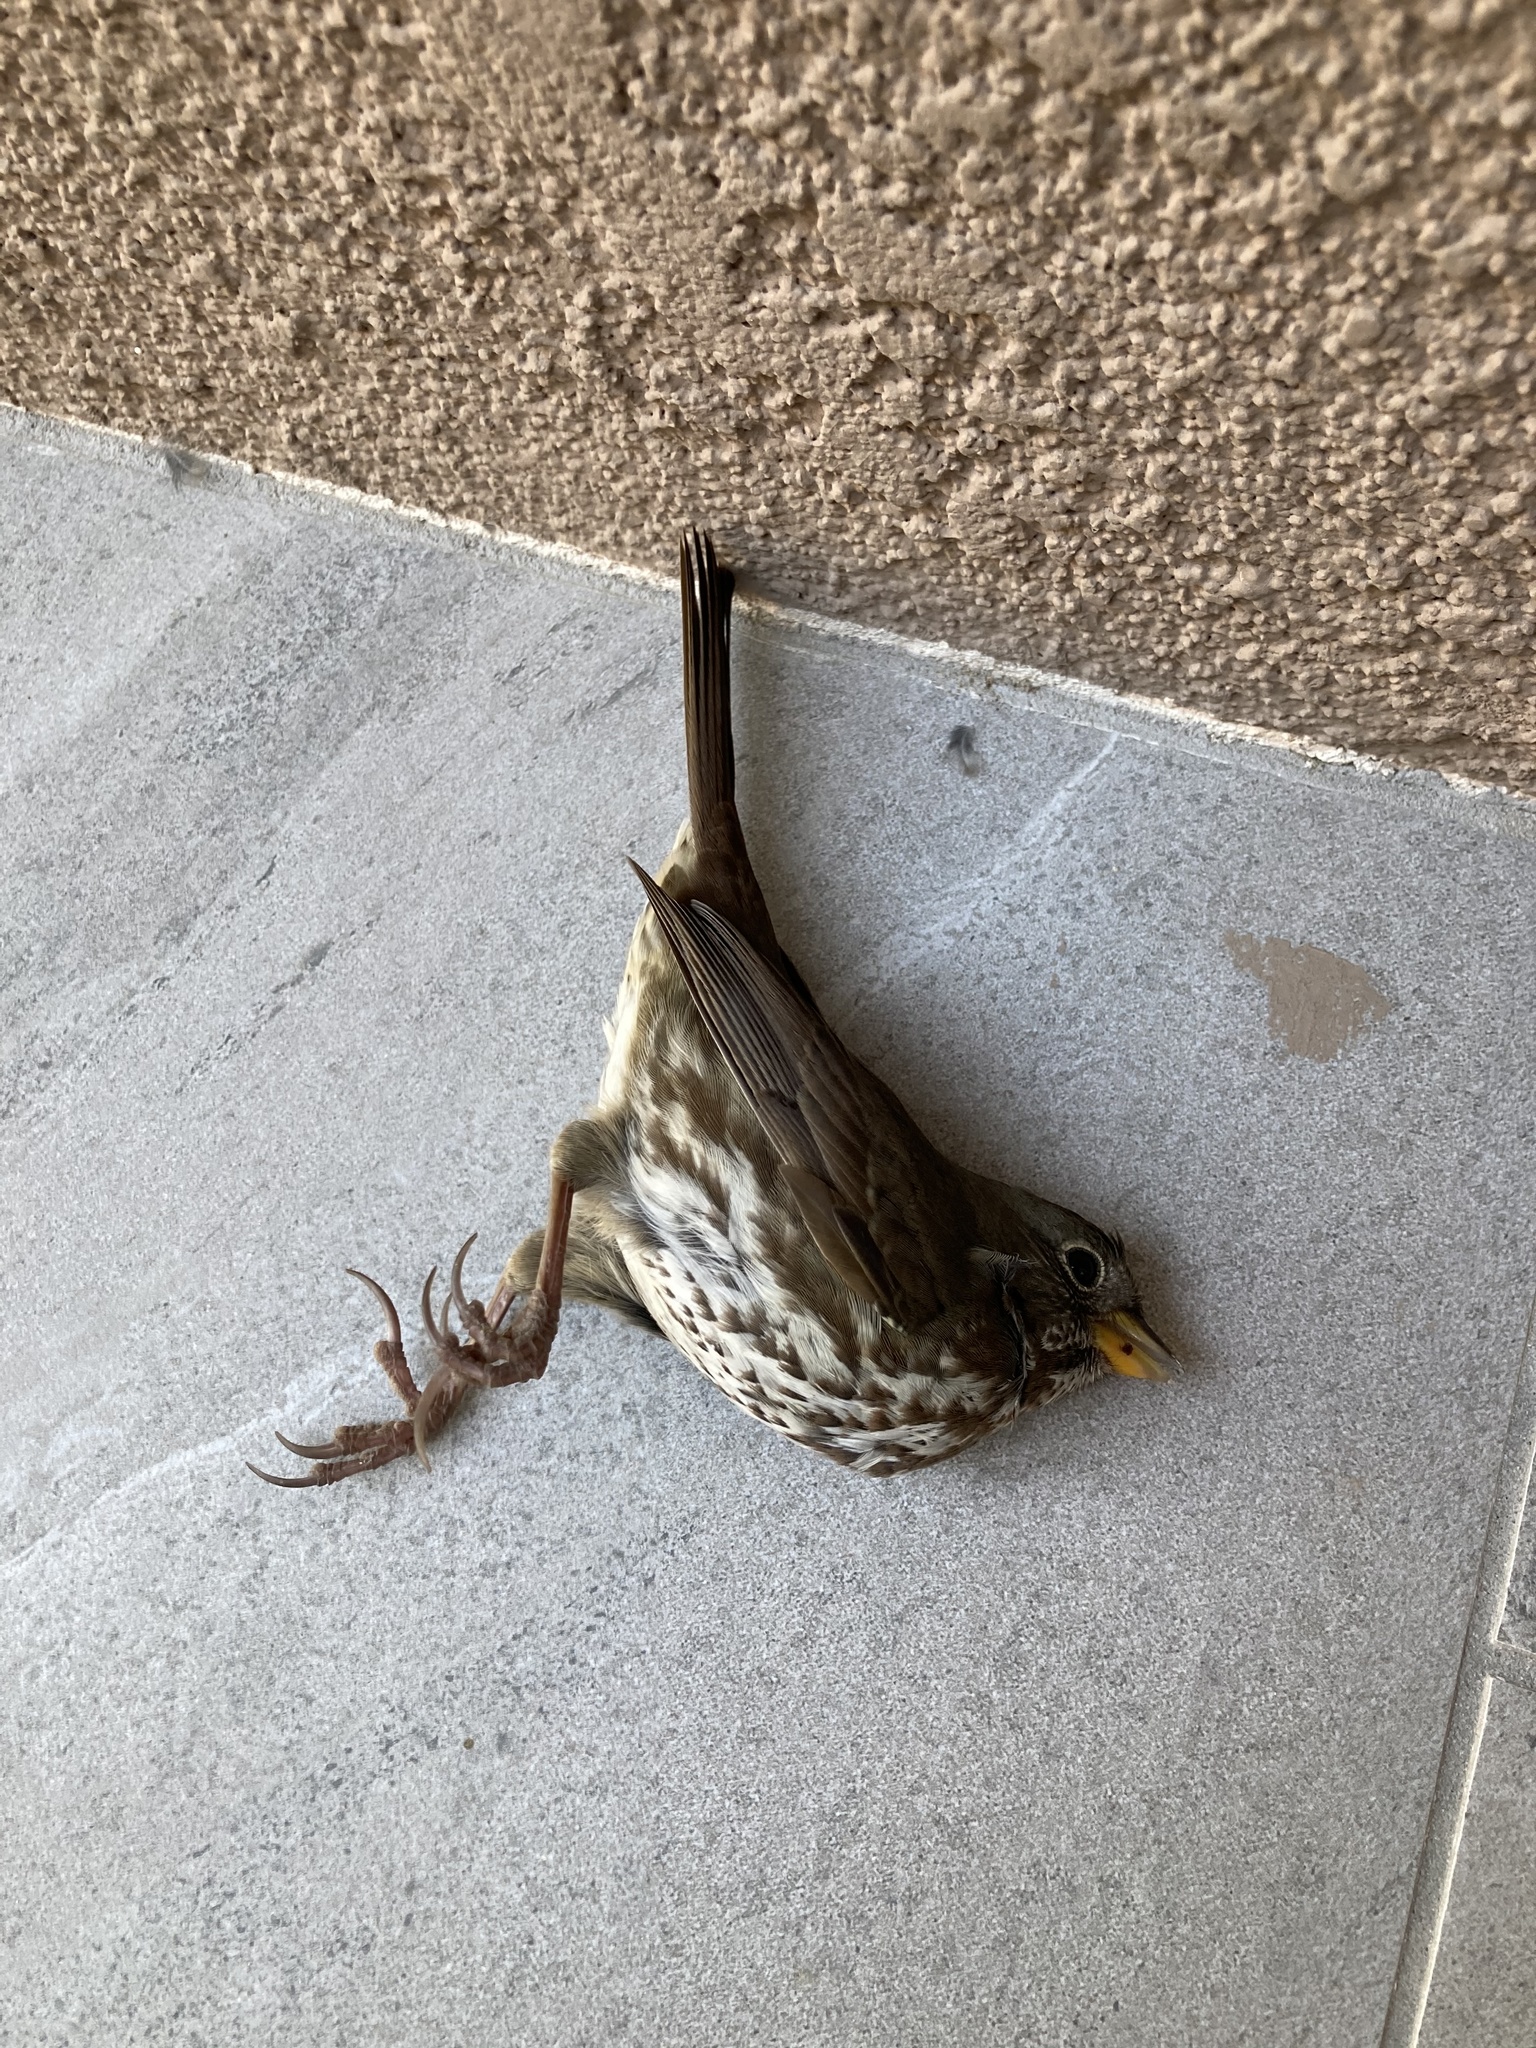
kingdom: Animalia
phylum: Chordata
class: Aves
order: Passeriformes
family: Passerellidae
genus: Passerella
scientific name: Passerella iliaca
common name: Fox sparrow
